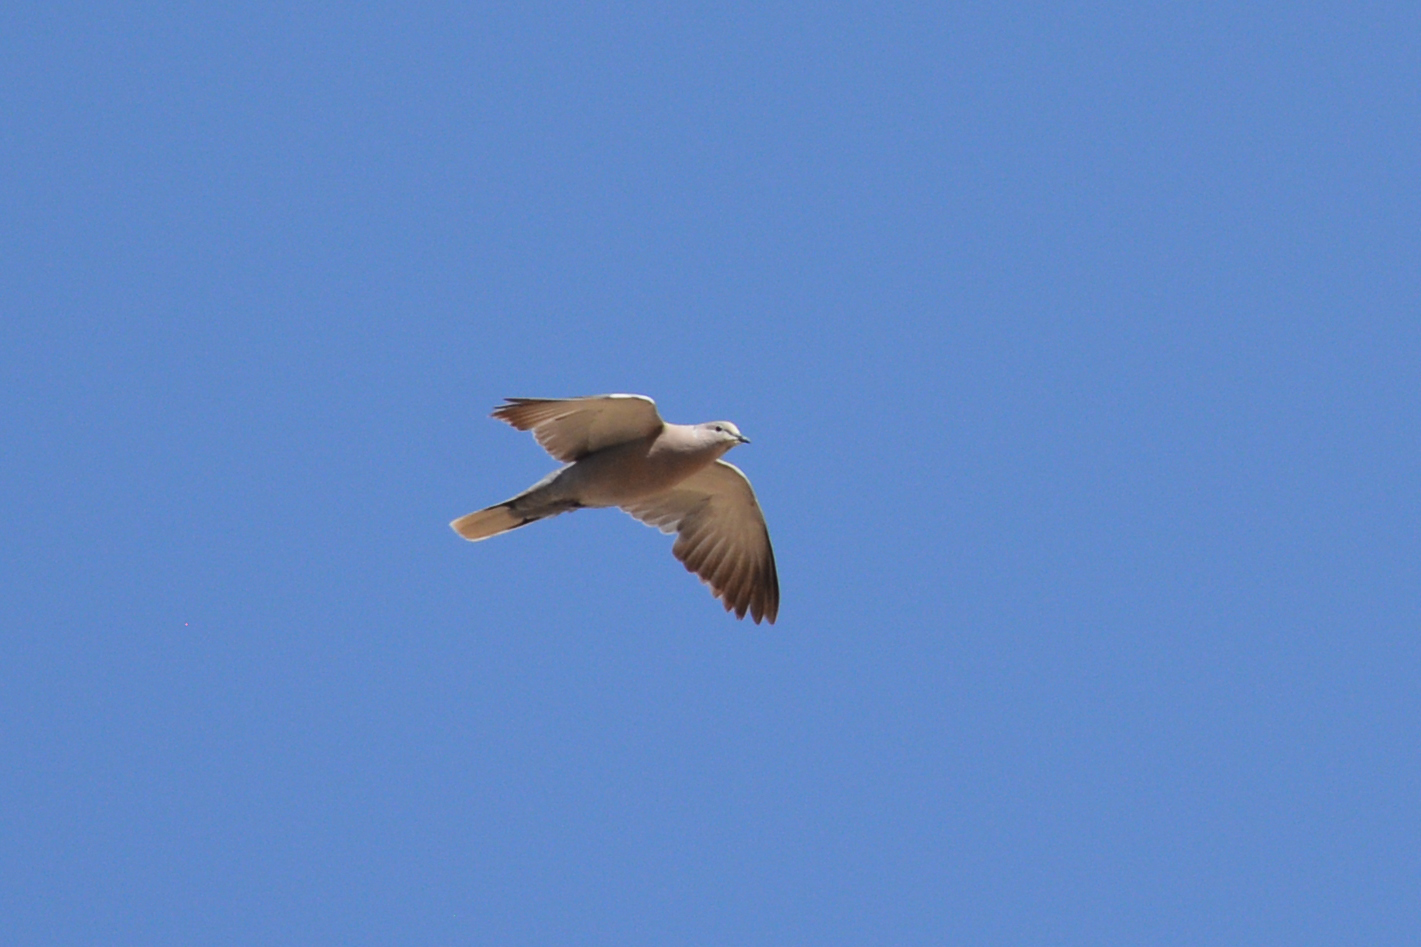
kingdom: Animalia
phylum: Chordata
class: Aves
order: Columbiformes
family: Columbidae
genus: Streptopelia
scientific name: Streptopelia decaocto
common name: Eurasian collared dove
